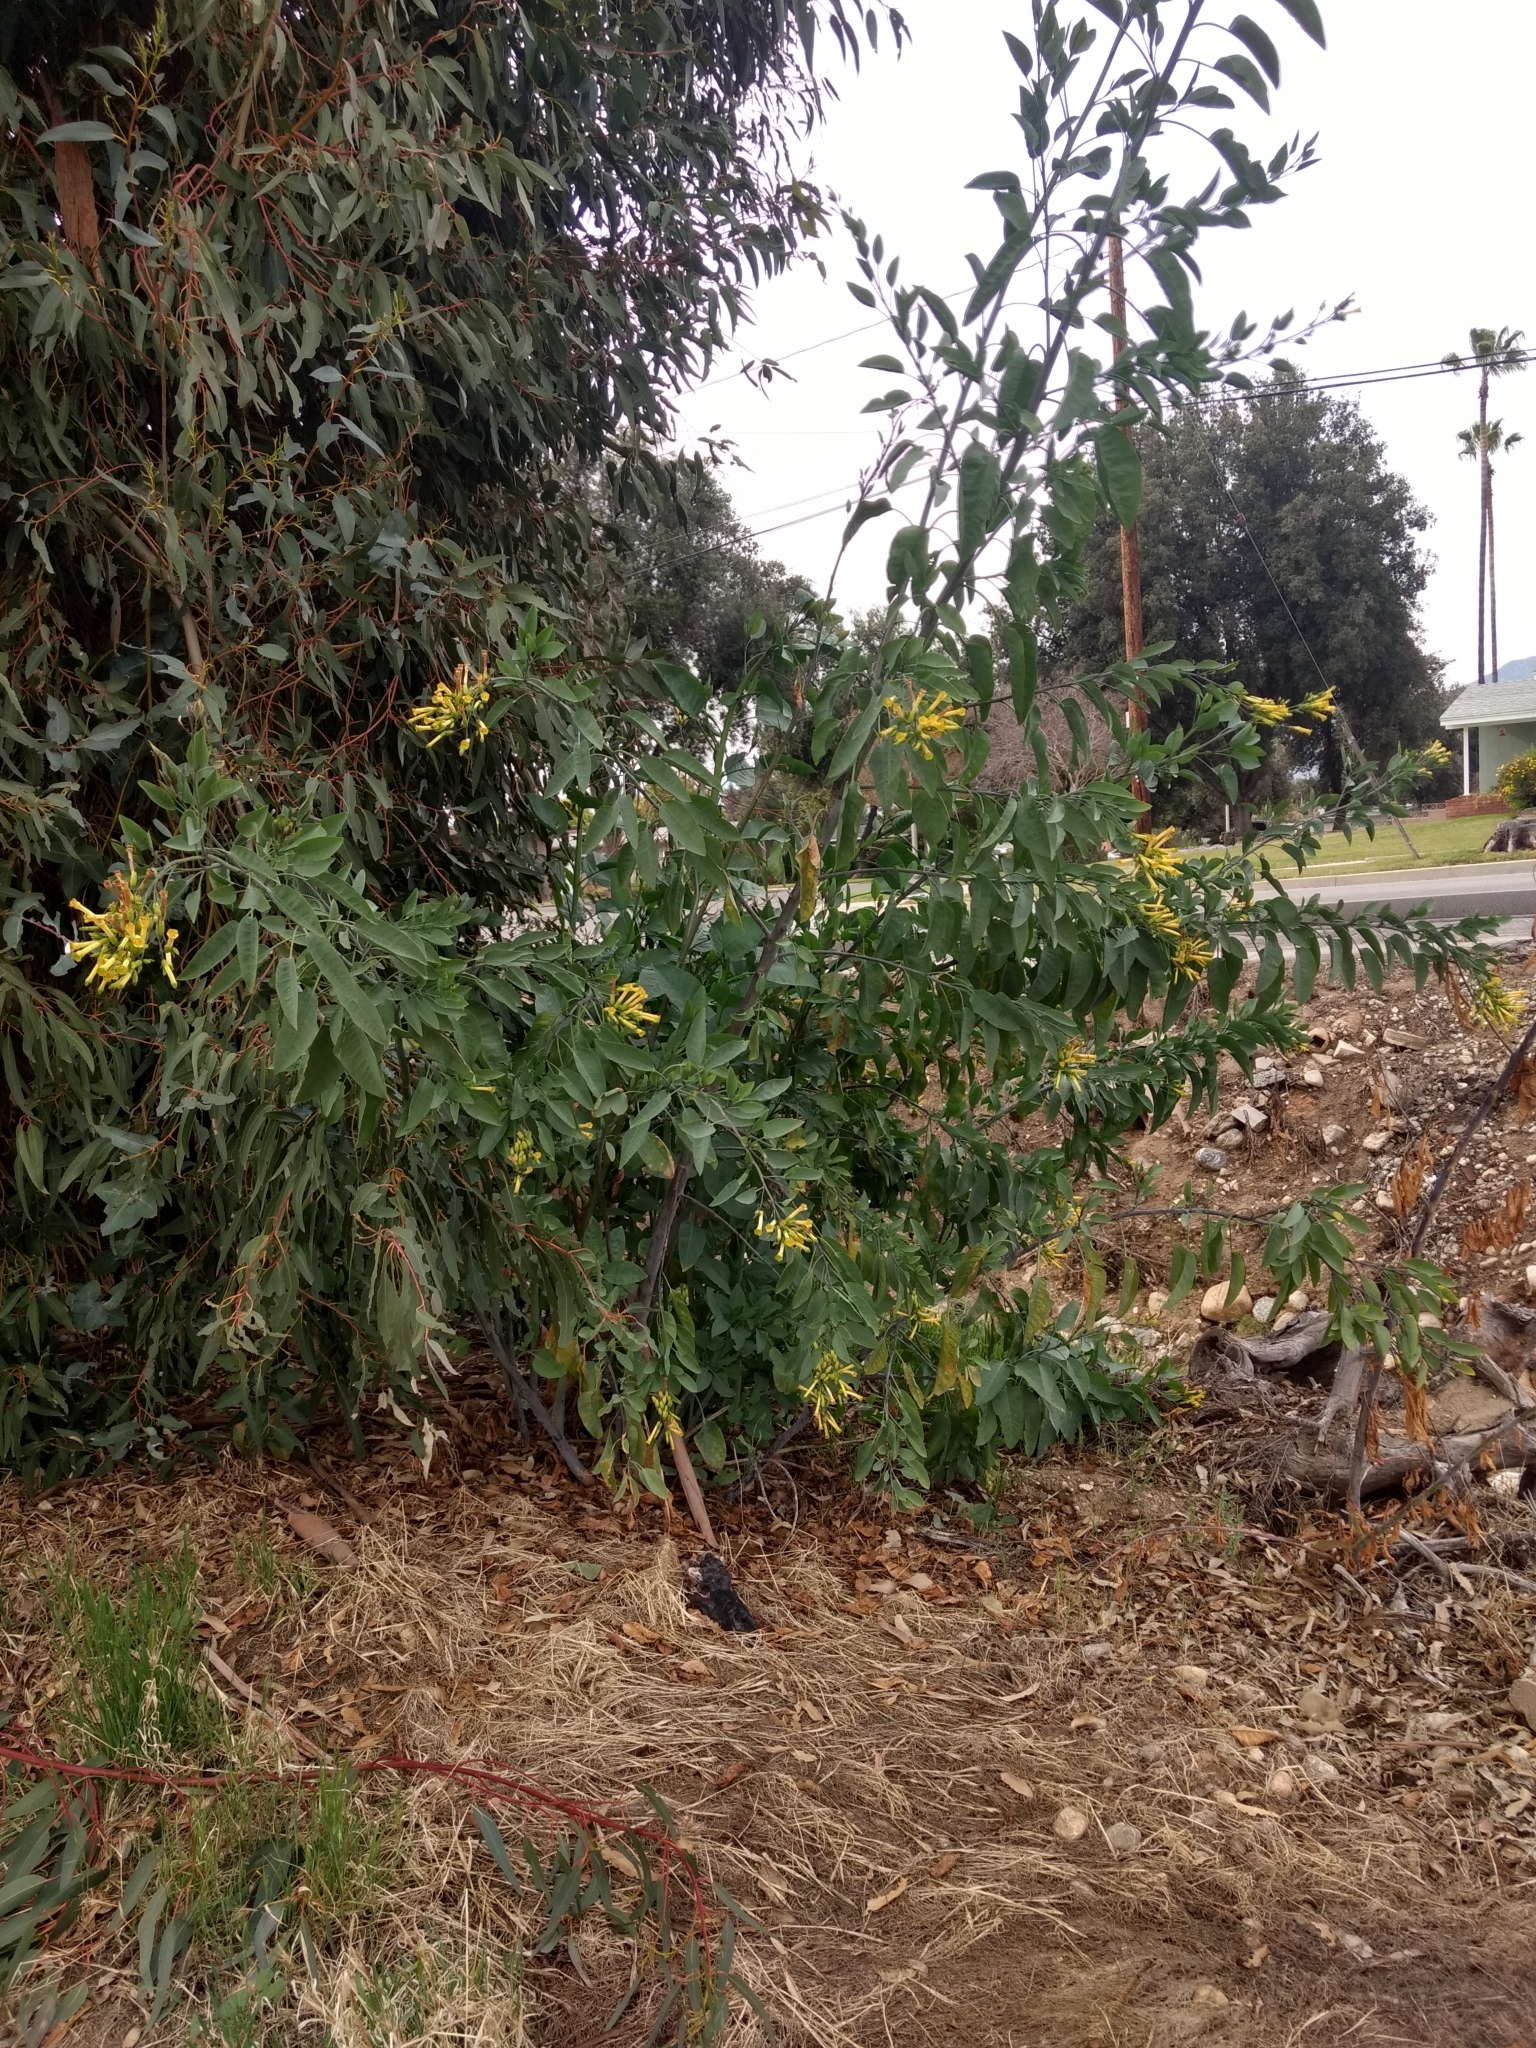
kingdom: Plantae
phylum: Tracheophyta
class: Magnoliopsida
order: Solanales
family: Solanaceae
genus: Nicotiana
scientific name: Nicotiana glauca
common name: Tree tobacco
